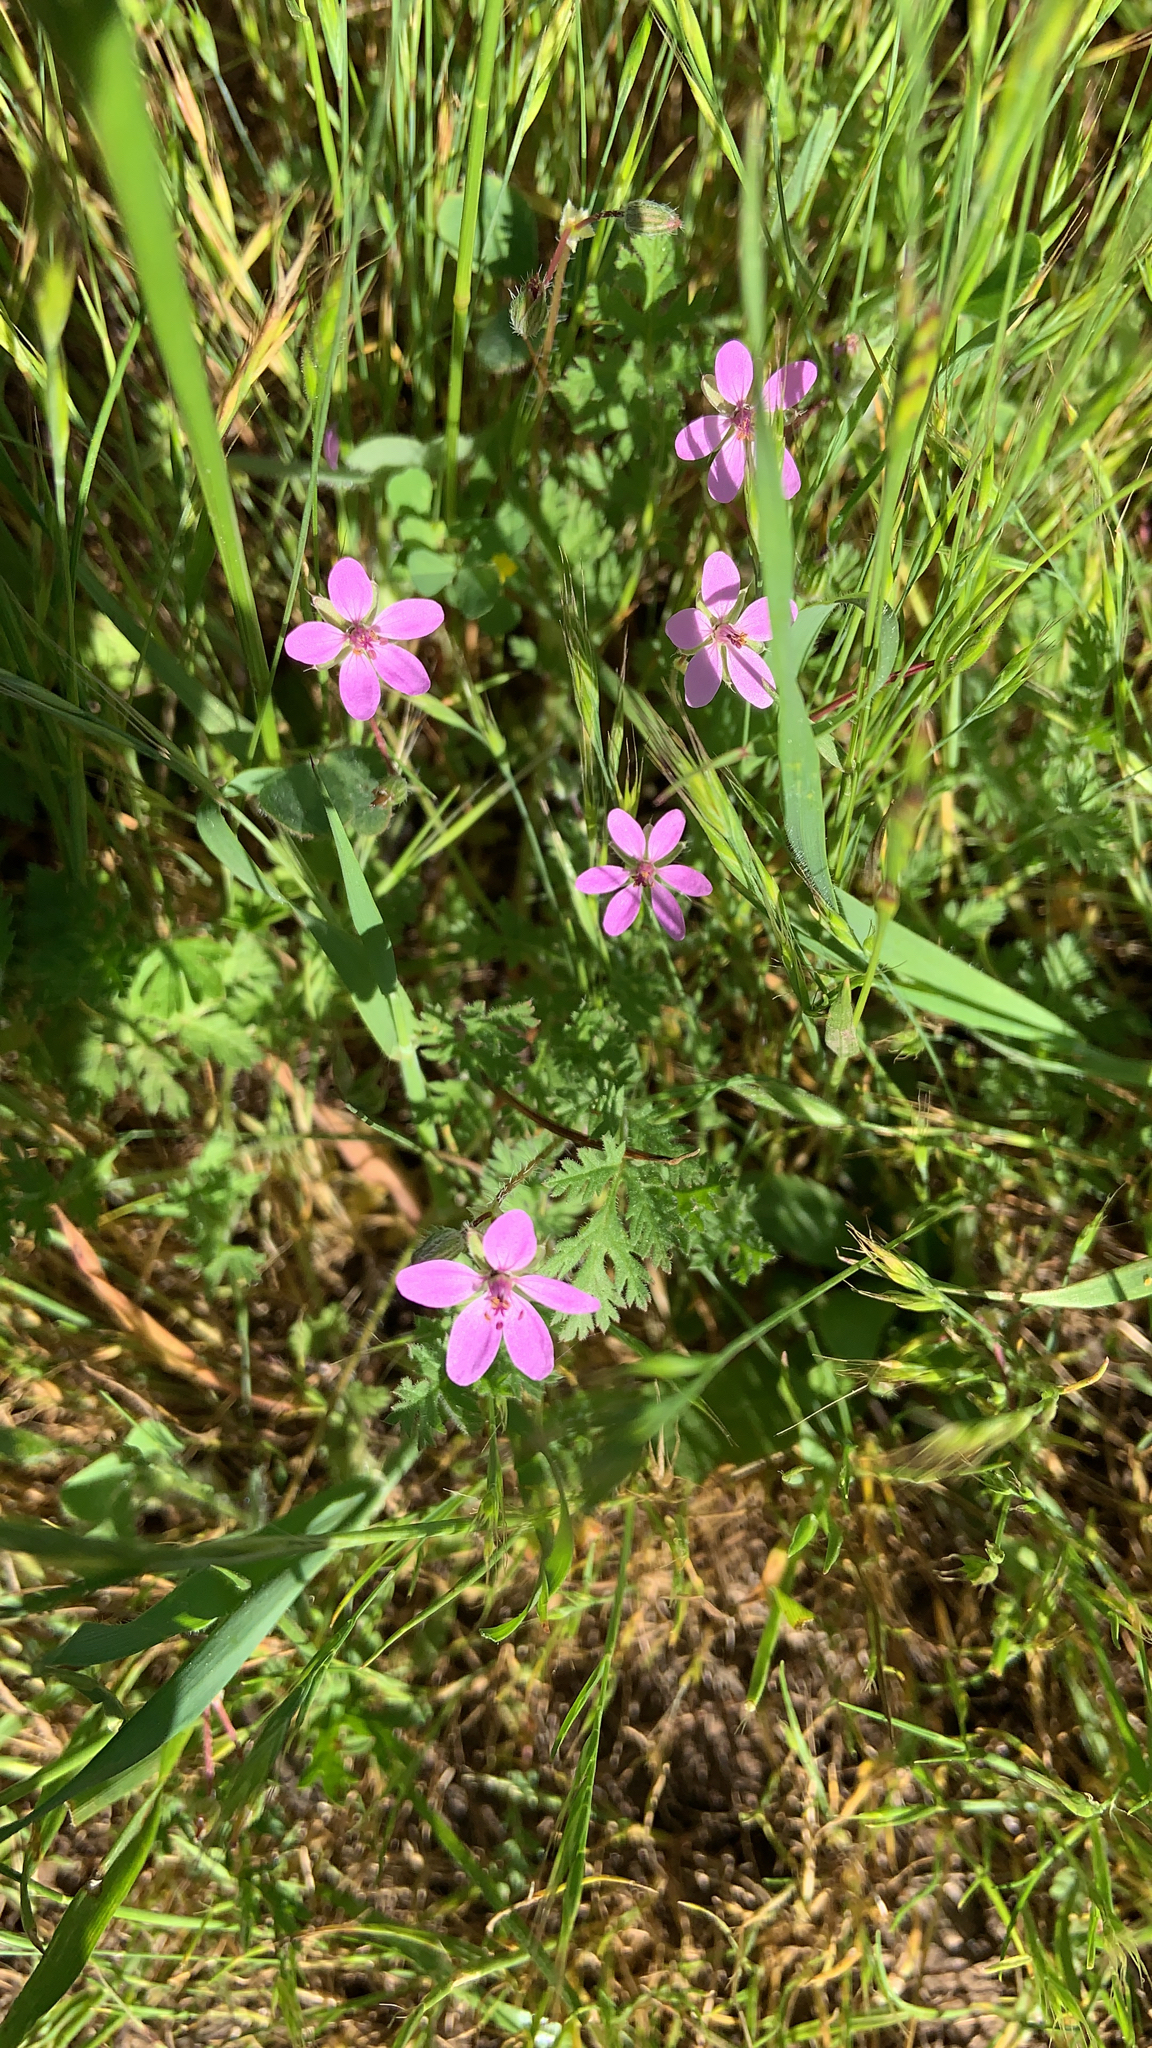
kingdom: Plantae
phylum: Tracheophyta
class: Magnoliopsida
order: Geraniales
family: Geraniaceae
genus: Erodium
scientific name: Erodium cicutarium
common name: Common stork's-bill
